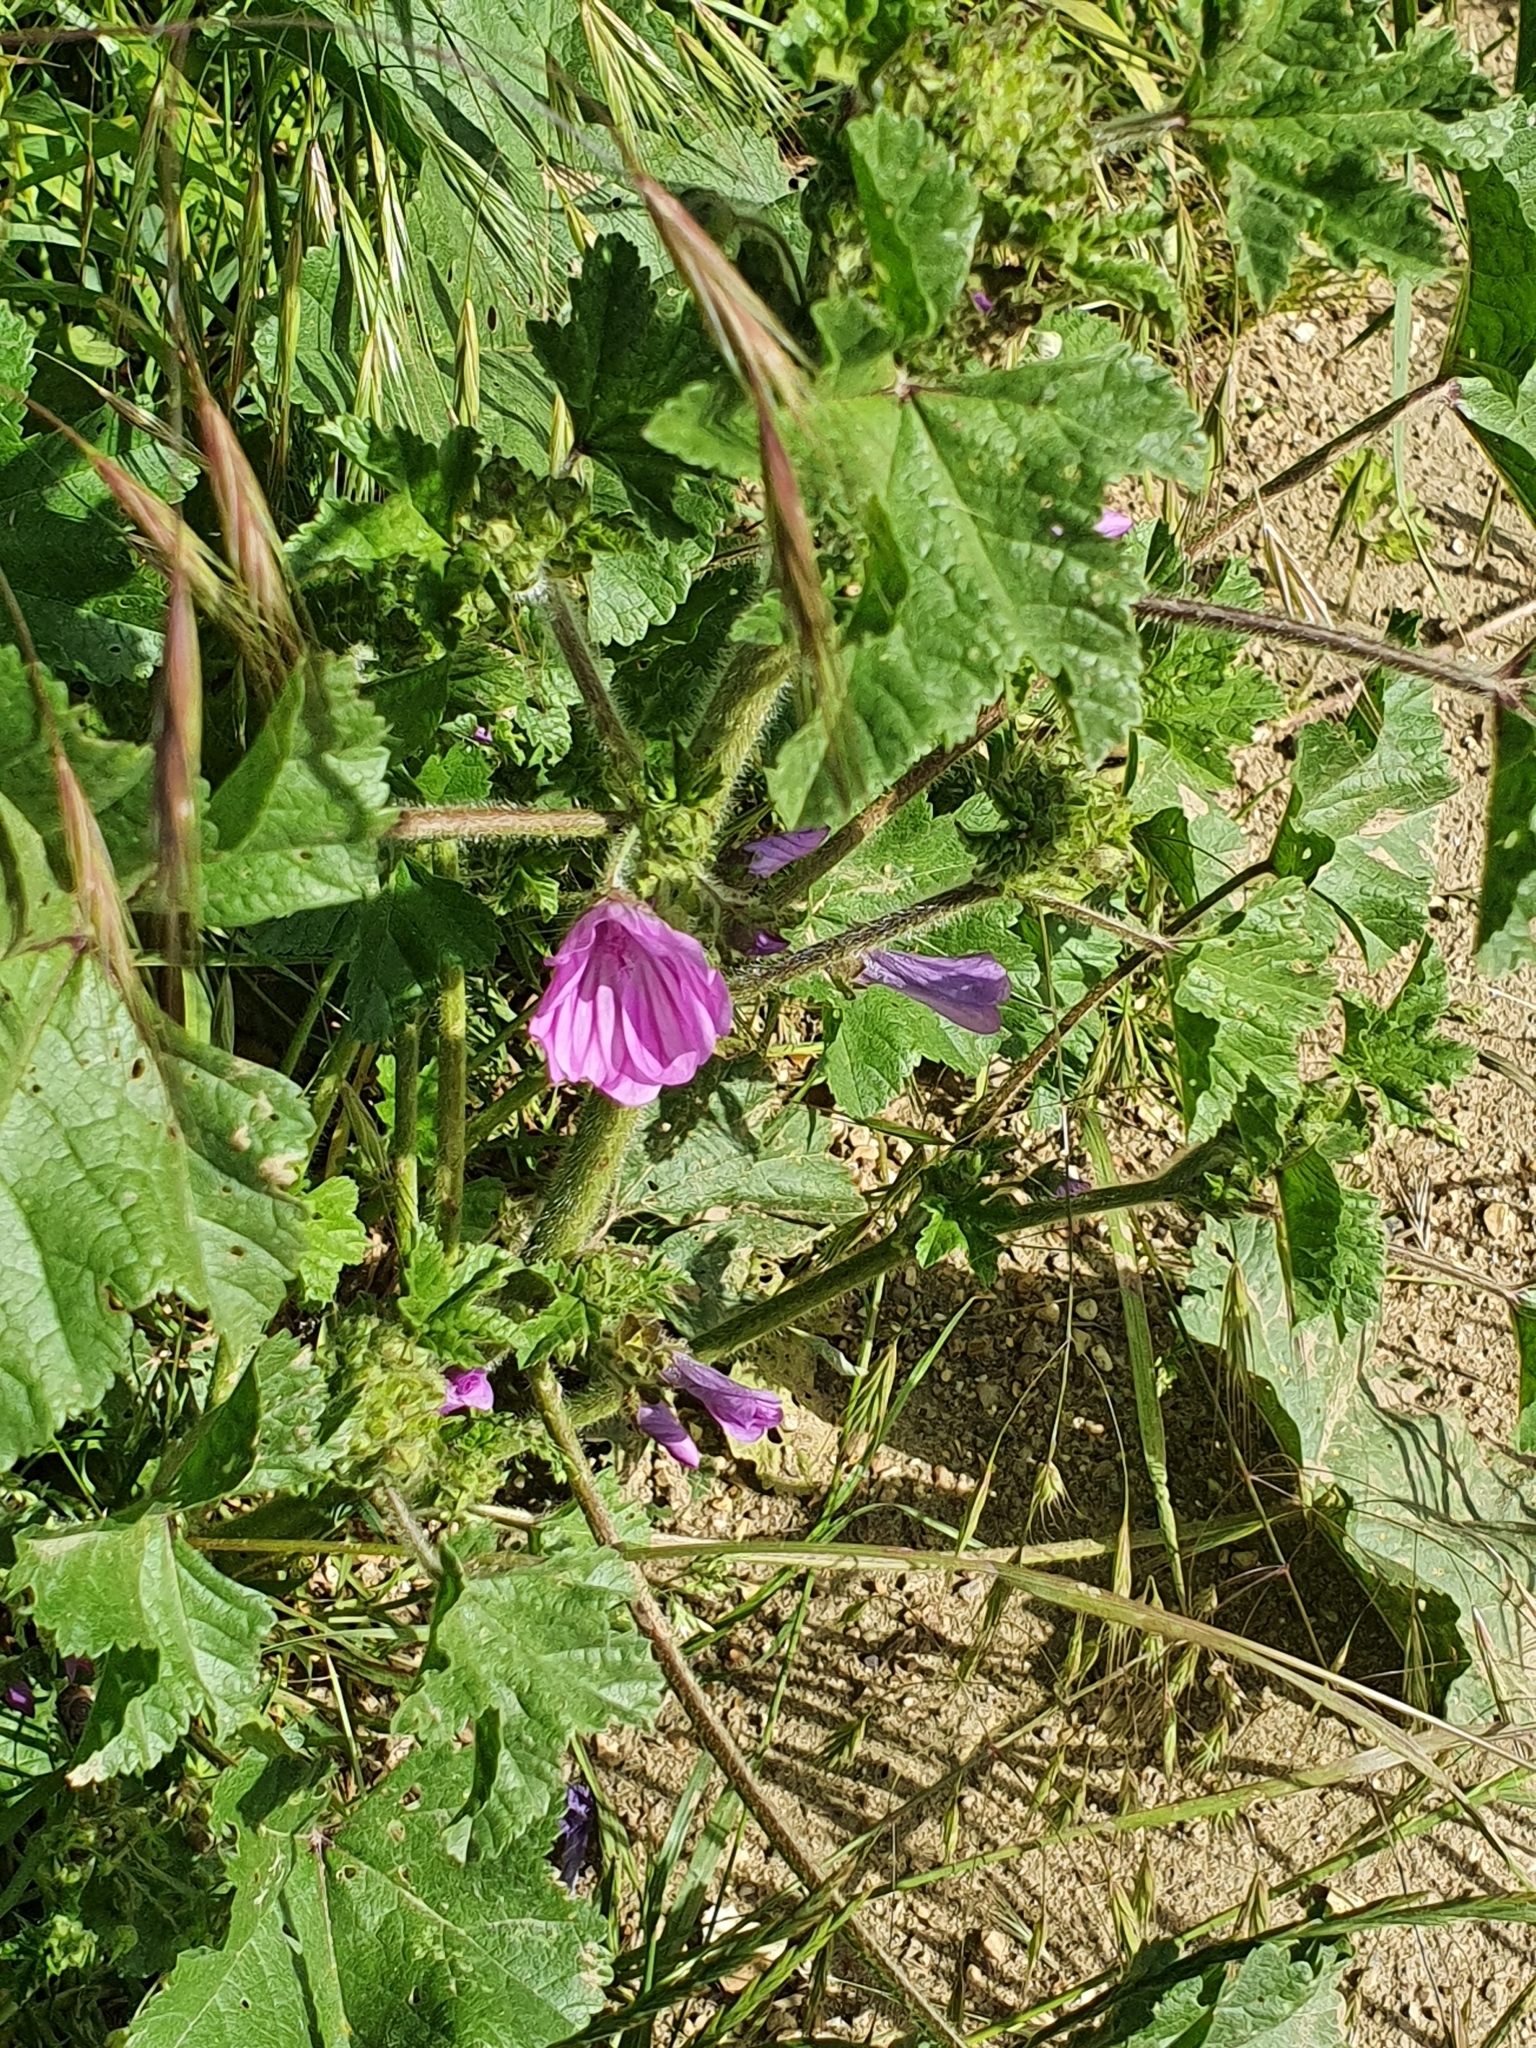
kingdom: Plantae
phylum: Tracheophyta
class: Magnoliopsida
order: Malvales
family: Malvaceae
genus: Malva
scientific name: Malva sylvestris
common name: Common mallow
